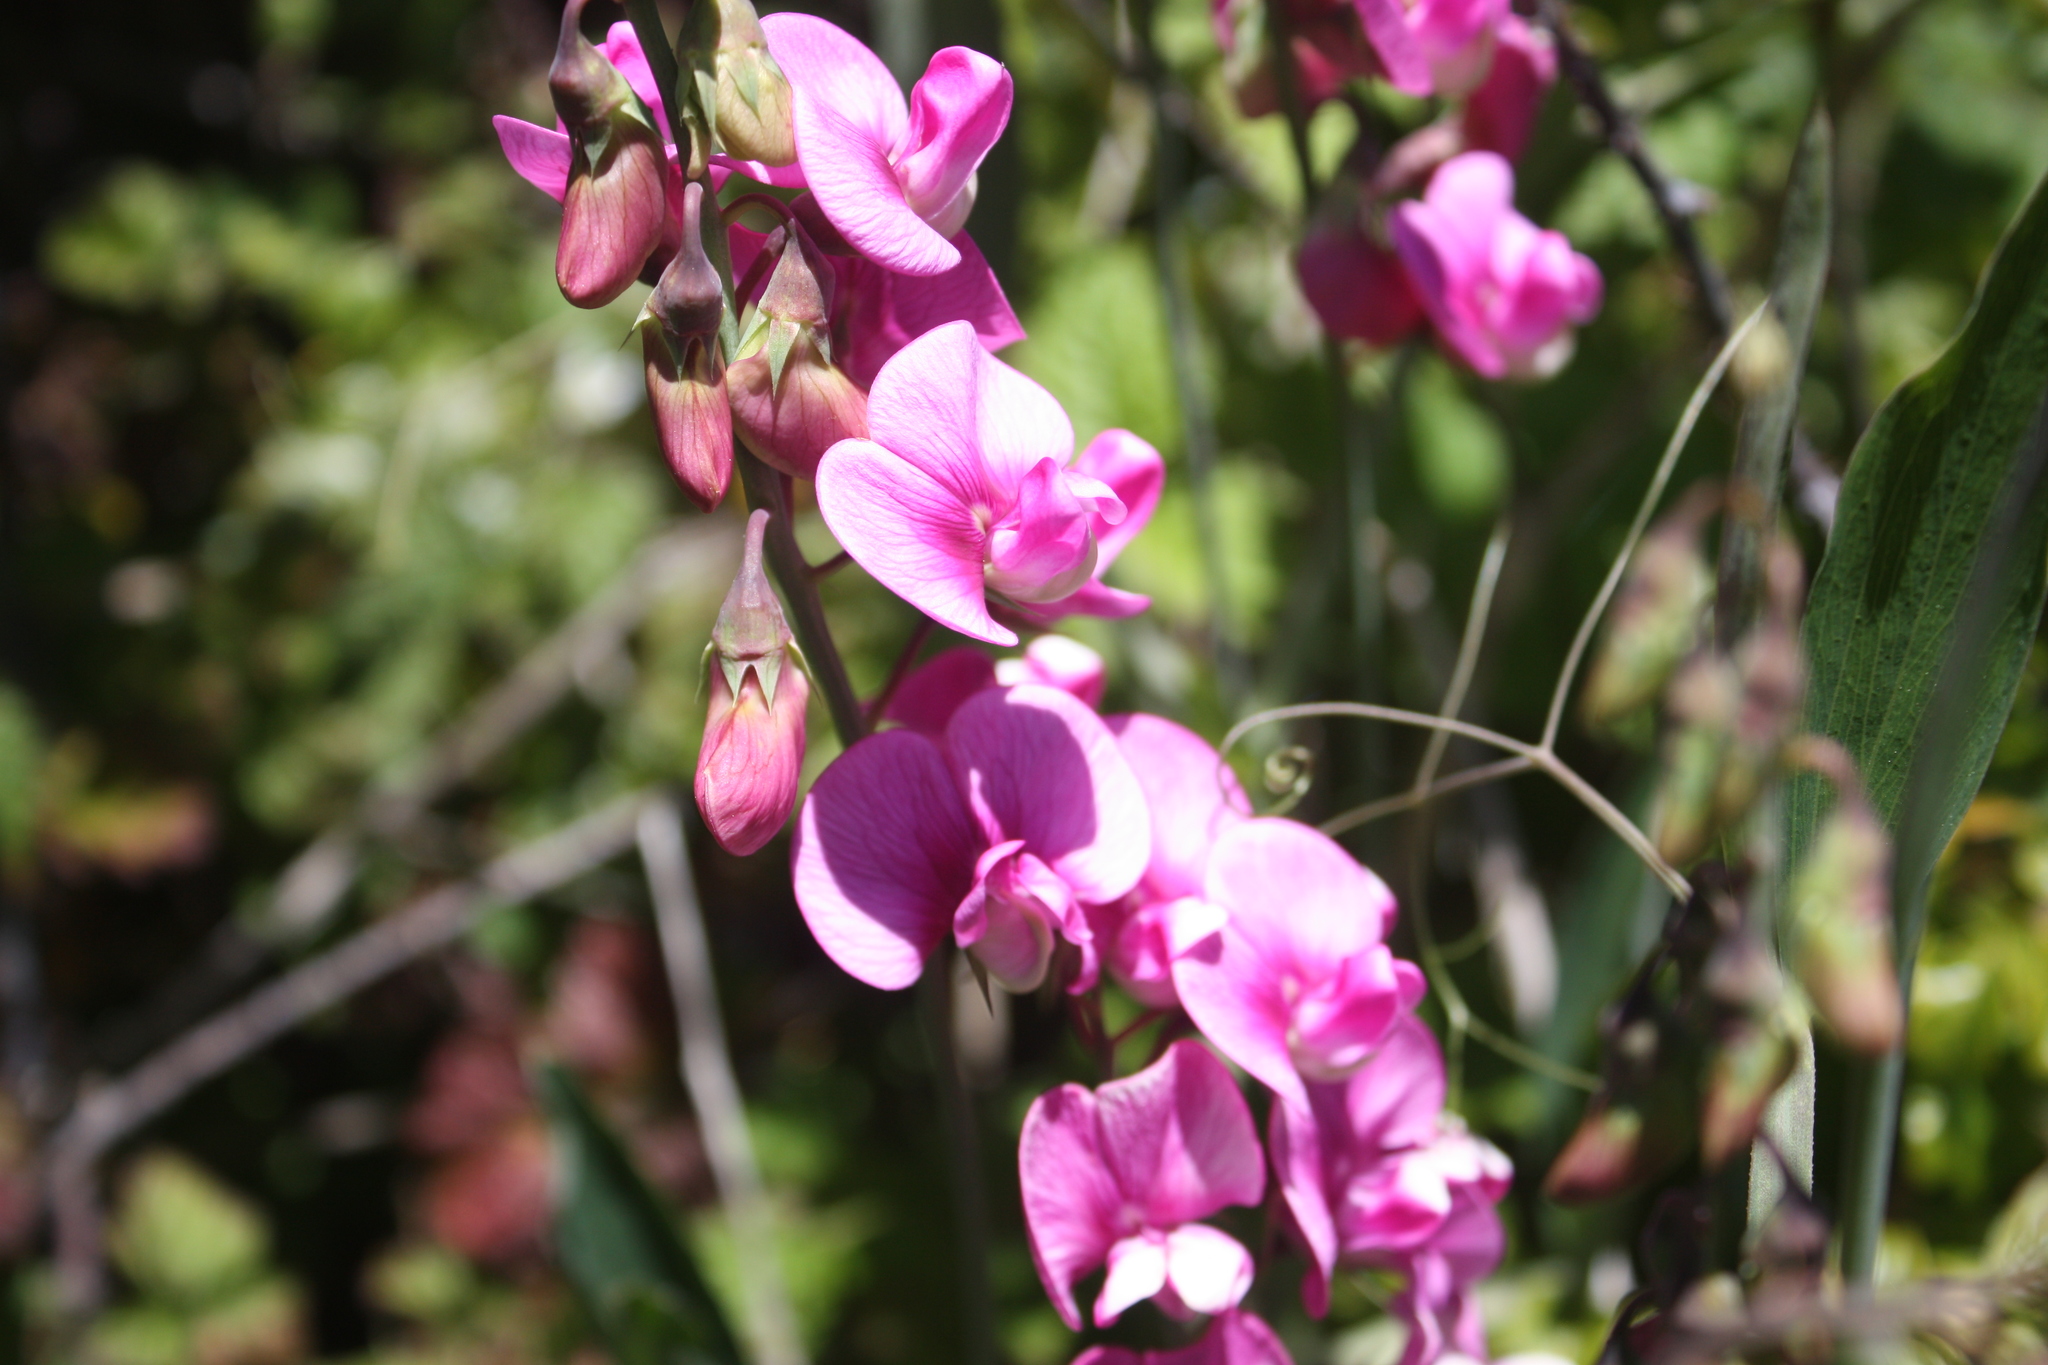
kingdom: Plantae
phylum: Tracheophyta
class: Magnoliopsida
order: Fabales
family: Fabaceae
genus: Lathyrus
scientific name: Lathyrus latifolius
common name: Perennial pea
